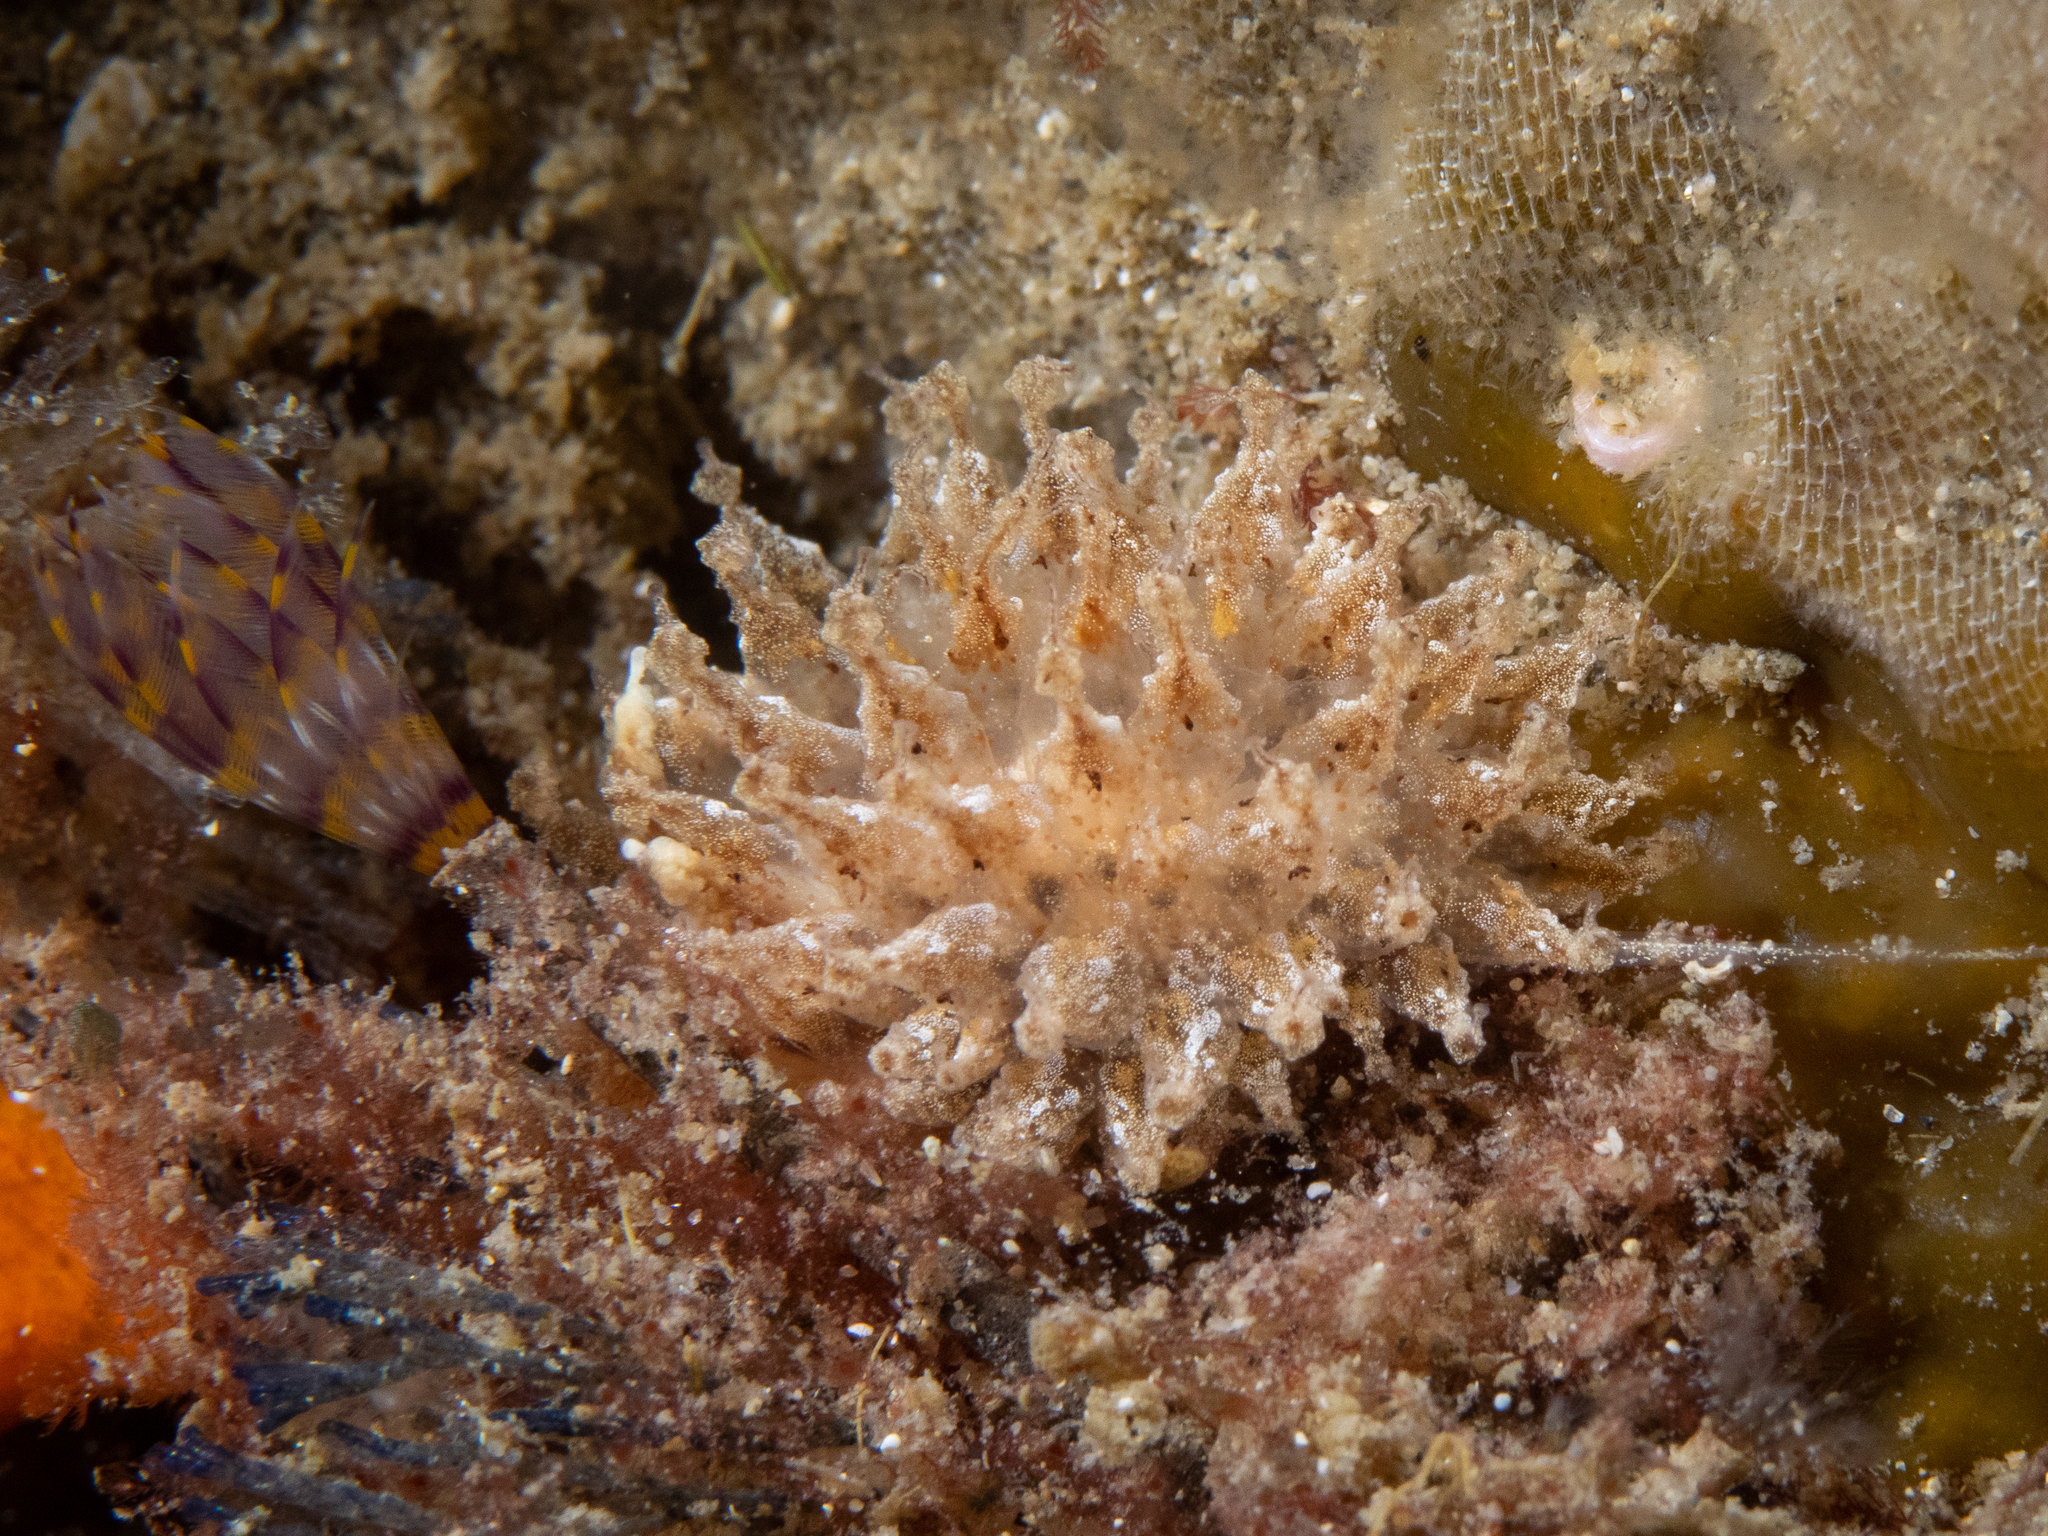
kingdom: Animalia
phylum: Mollusca
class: Gastropoda
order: Nudibranchia
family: Janolidae
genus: Janolus
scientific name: Janolus hyalinus
